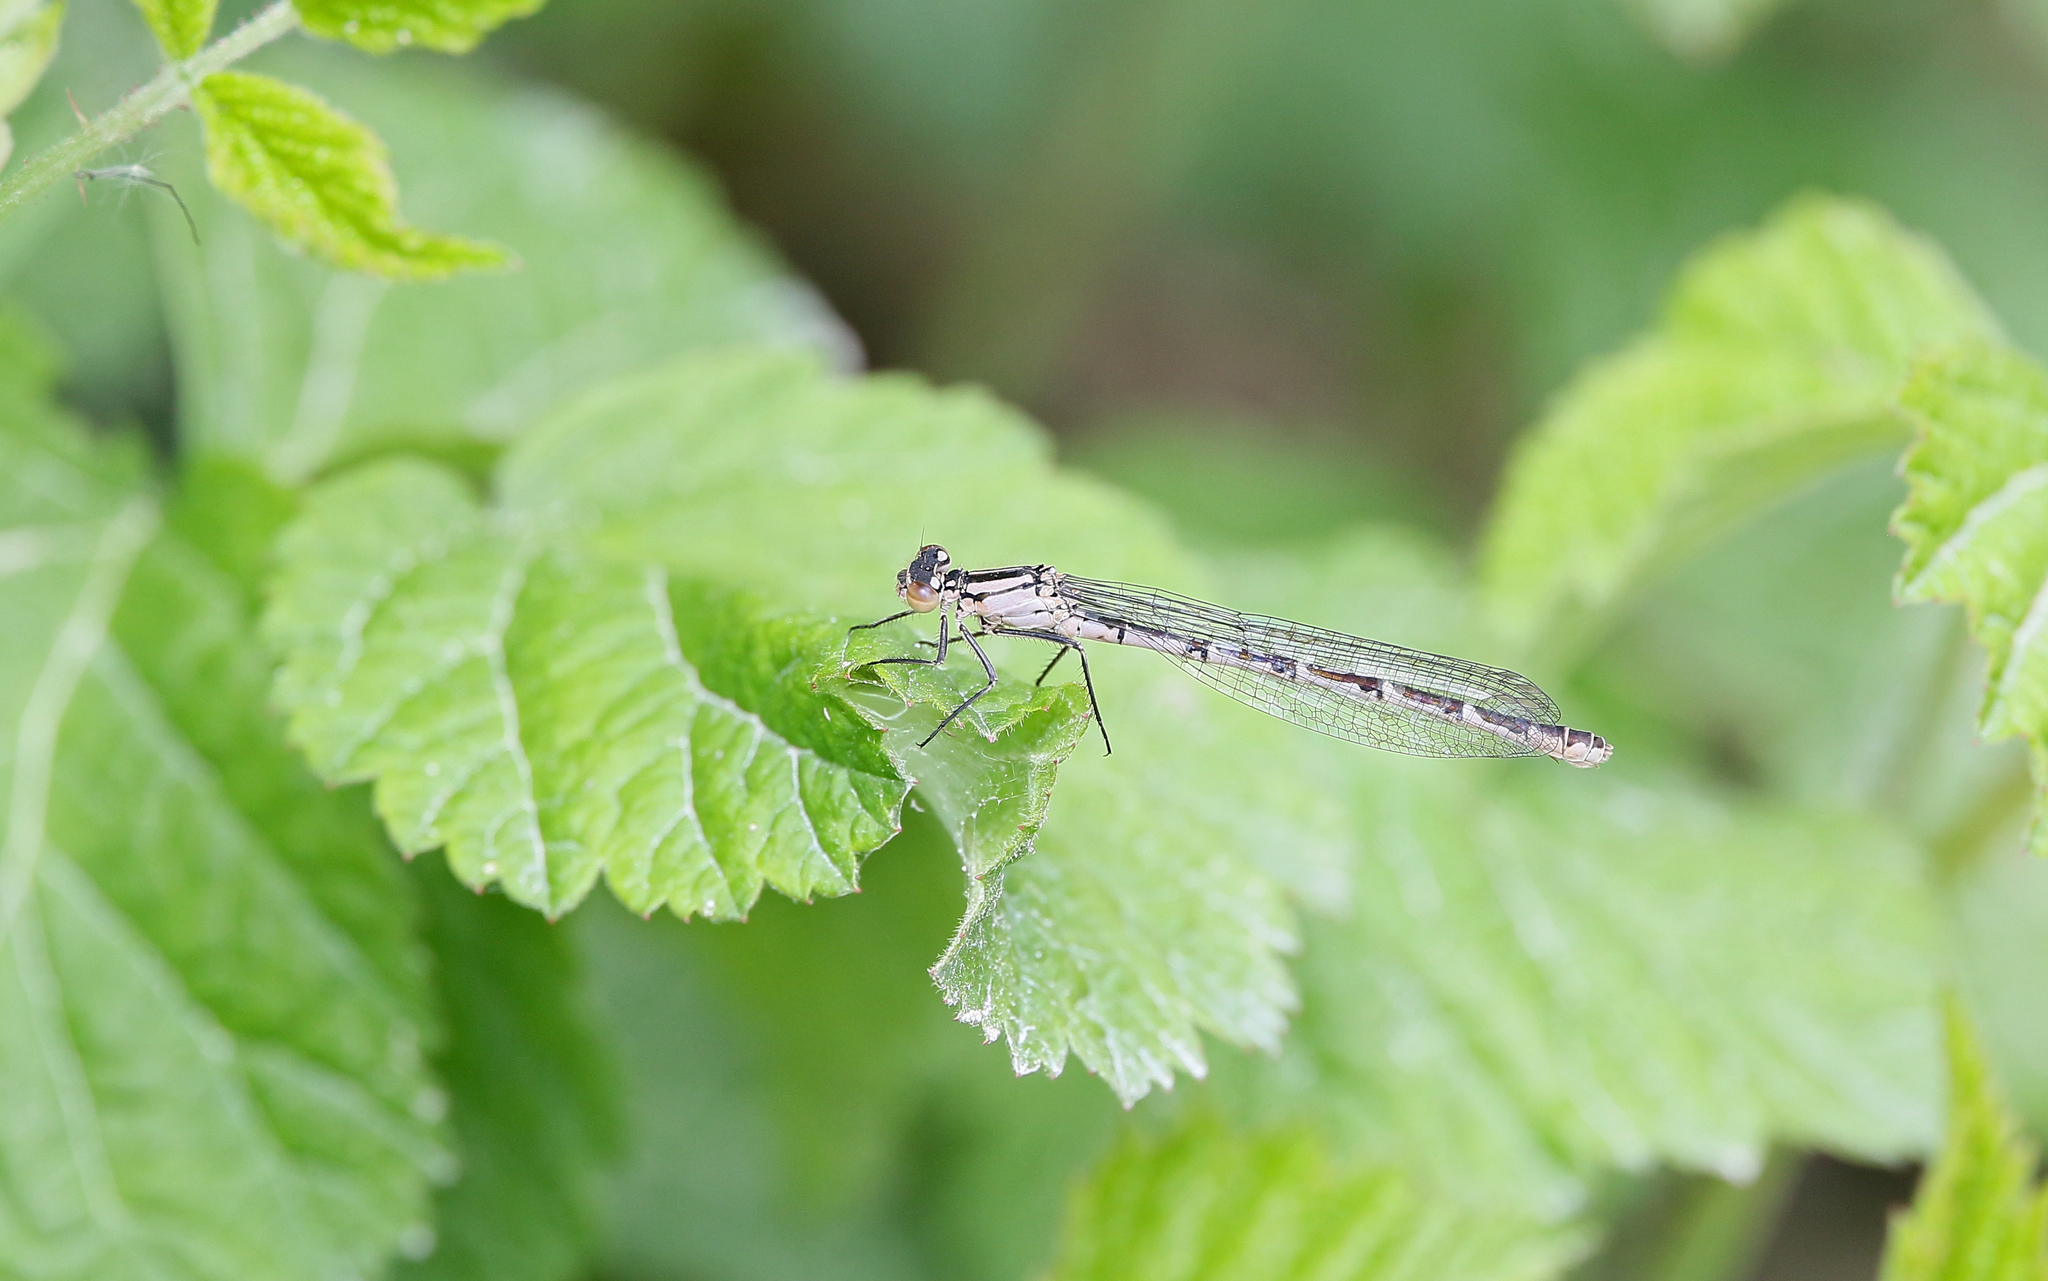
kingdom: Animalia
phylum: Arthropoda
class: Insecta
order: Odonata
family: Coenagrionidae
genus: Enallagma
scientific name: Enallagma cyathigerum
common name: Common blue damselfly
